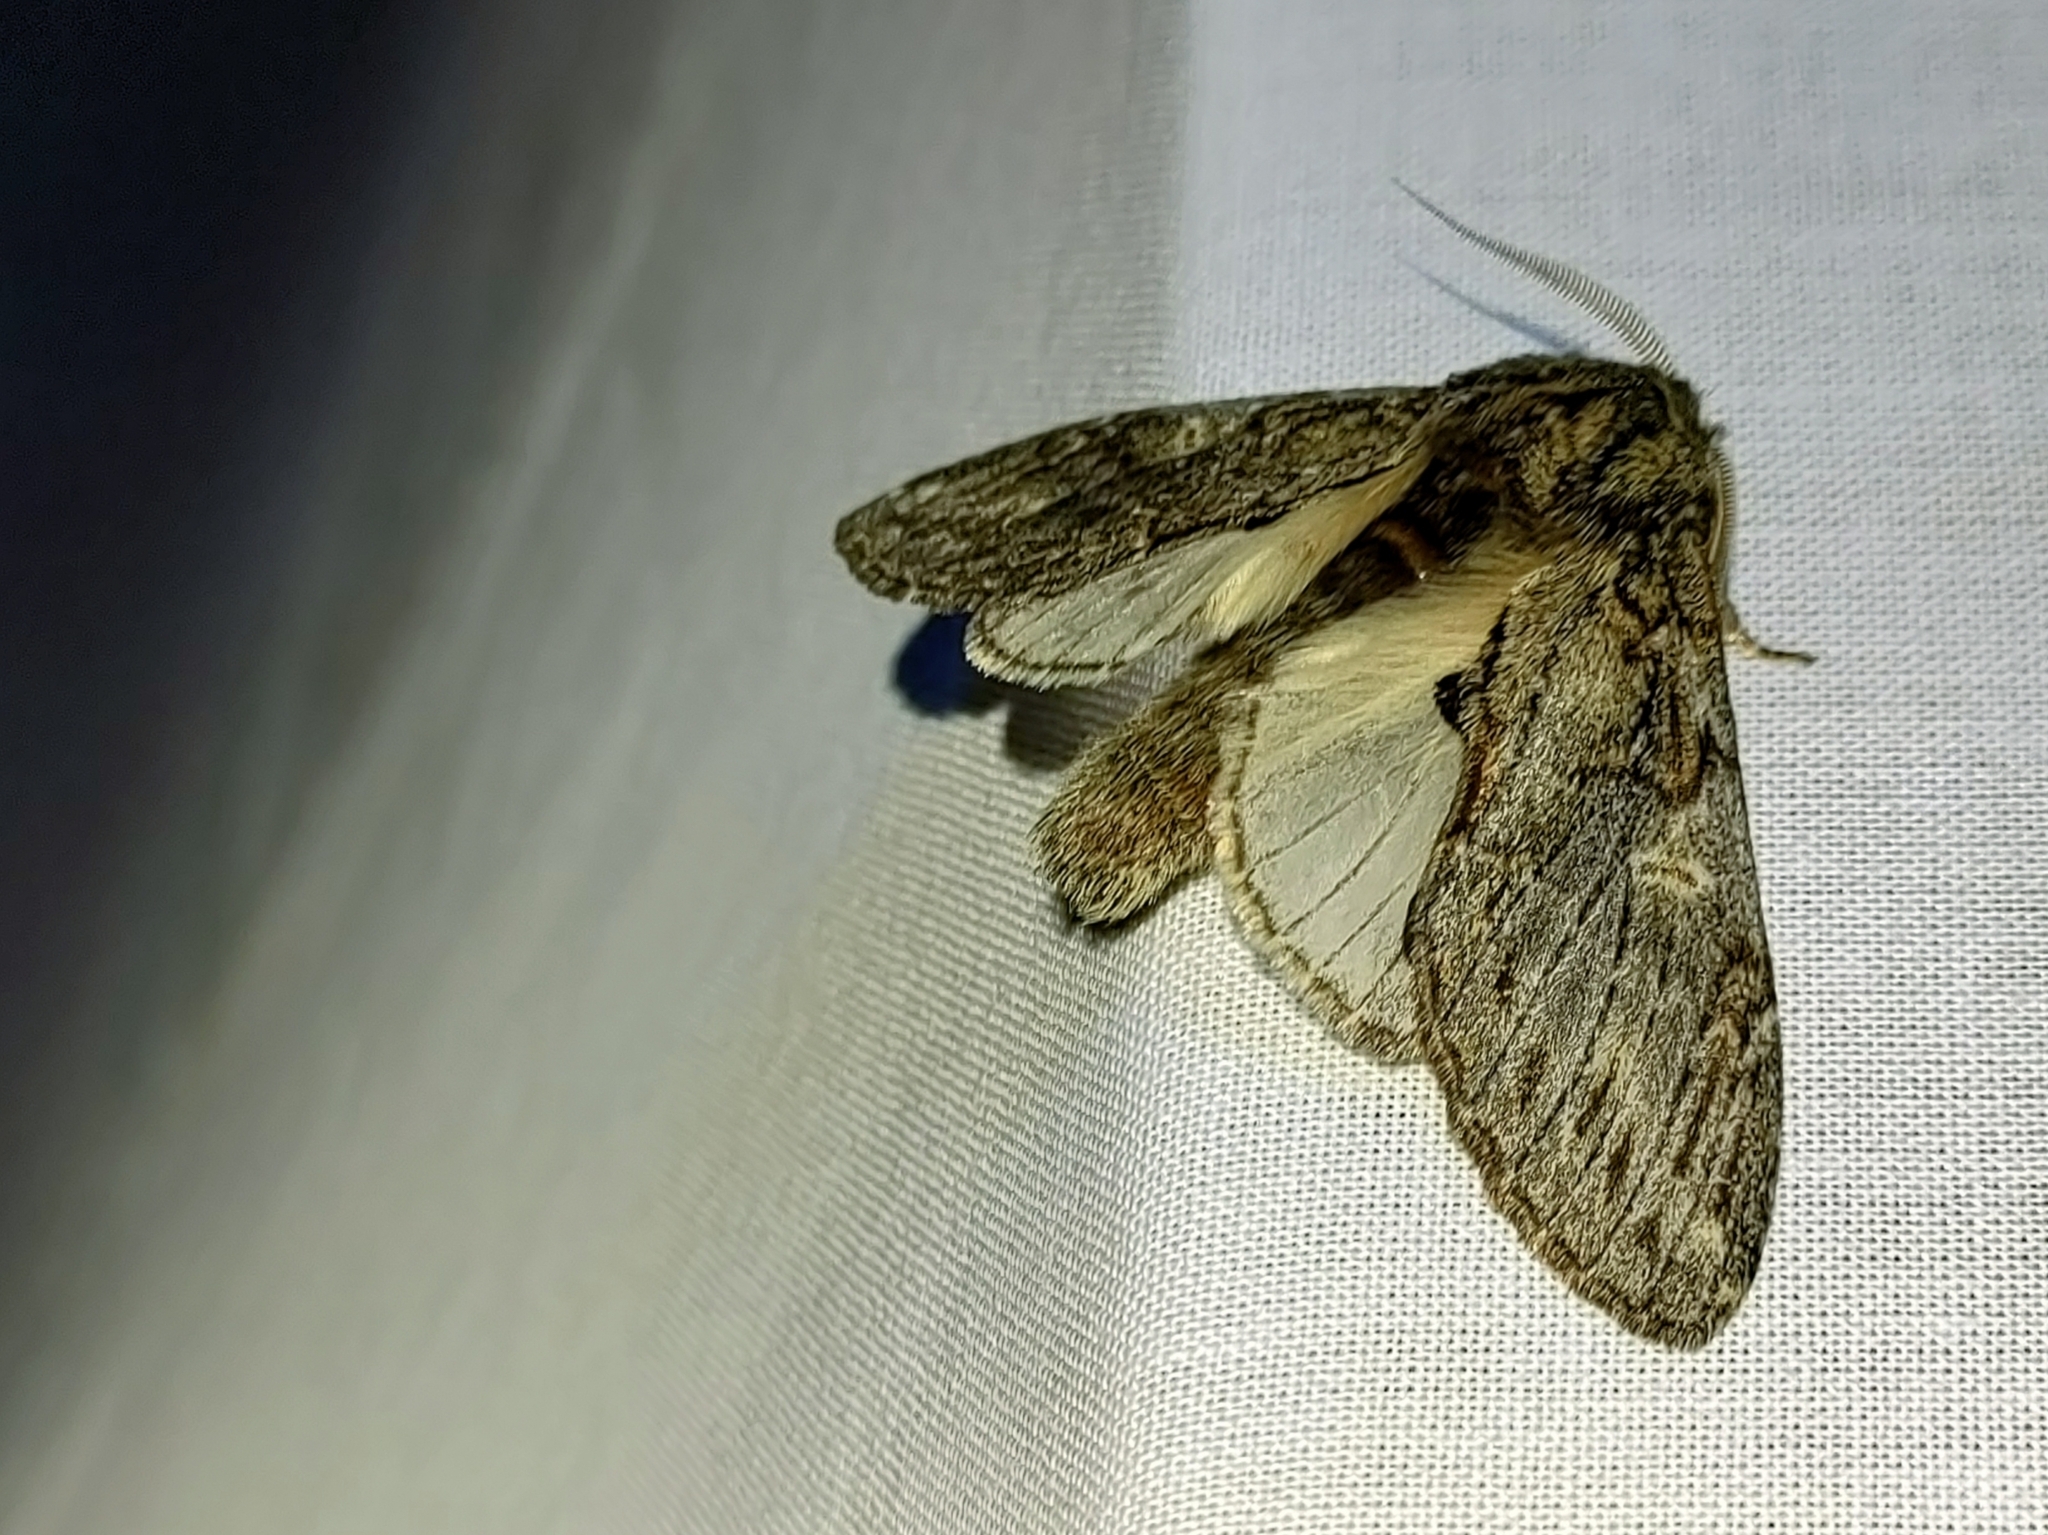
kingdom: Animalia
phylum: Arthropoda
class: Insecta
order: Lepidoptera
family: Notodontidae
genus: Peridea
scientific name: Peridea anceps
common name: Great prominent
